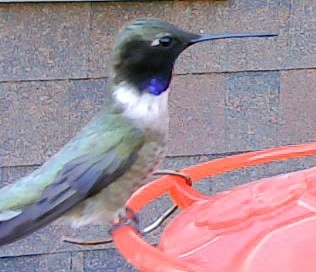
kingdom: Animalia
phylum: Chordata
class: Aves
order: Apodiformes
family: Trochilidae
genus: Archilochus
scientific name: Archilochus alexandri
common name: Black-chinned hummingbird
